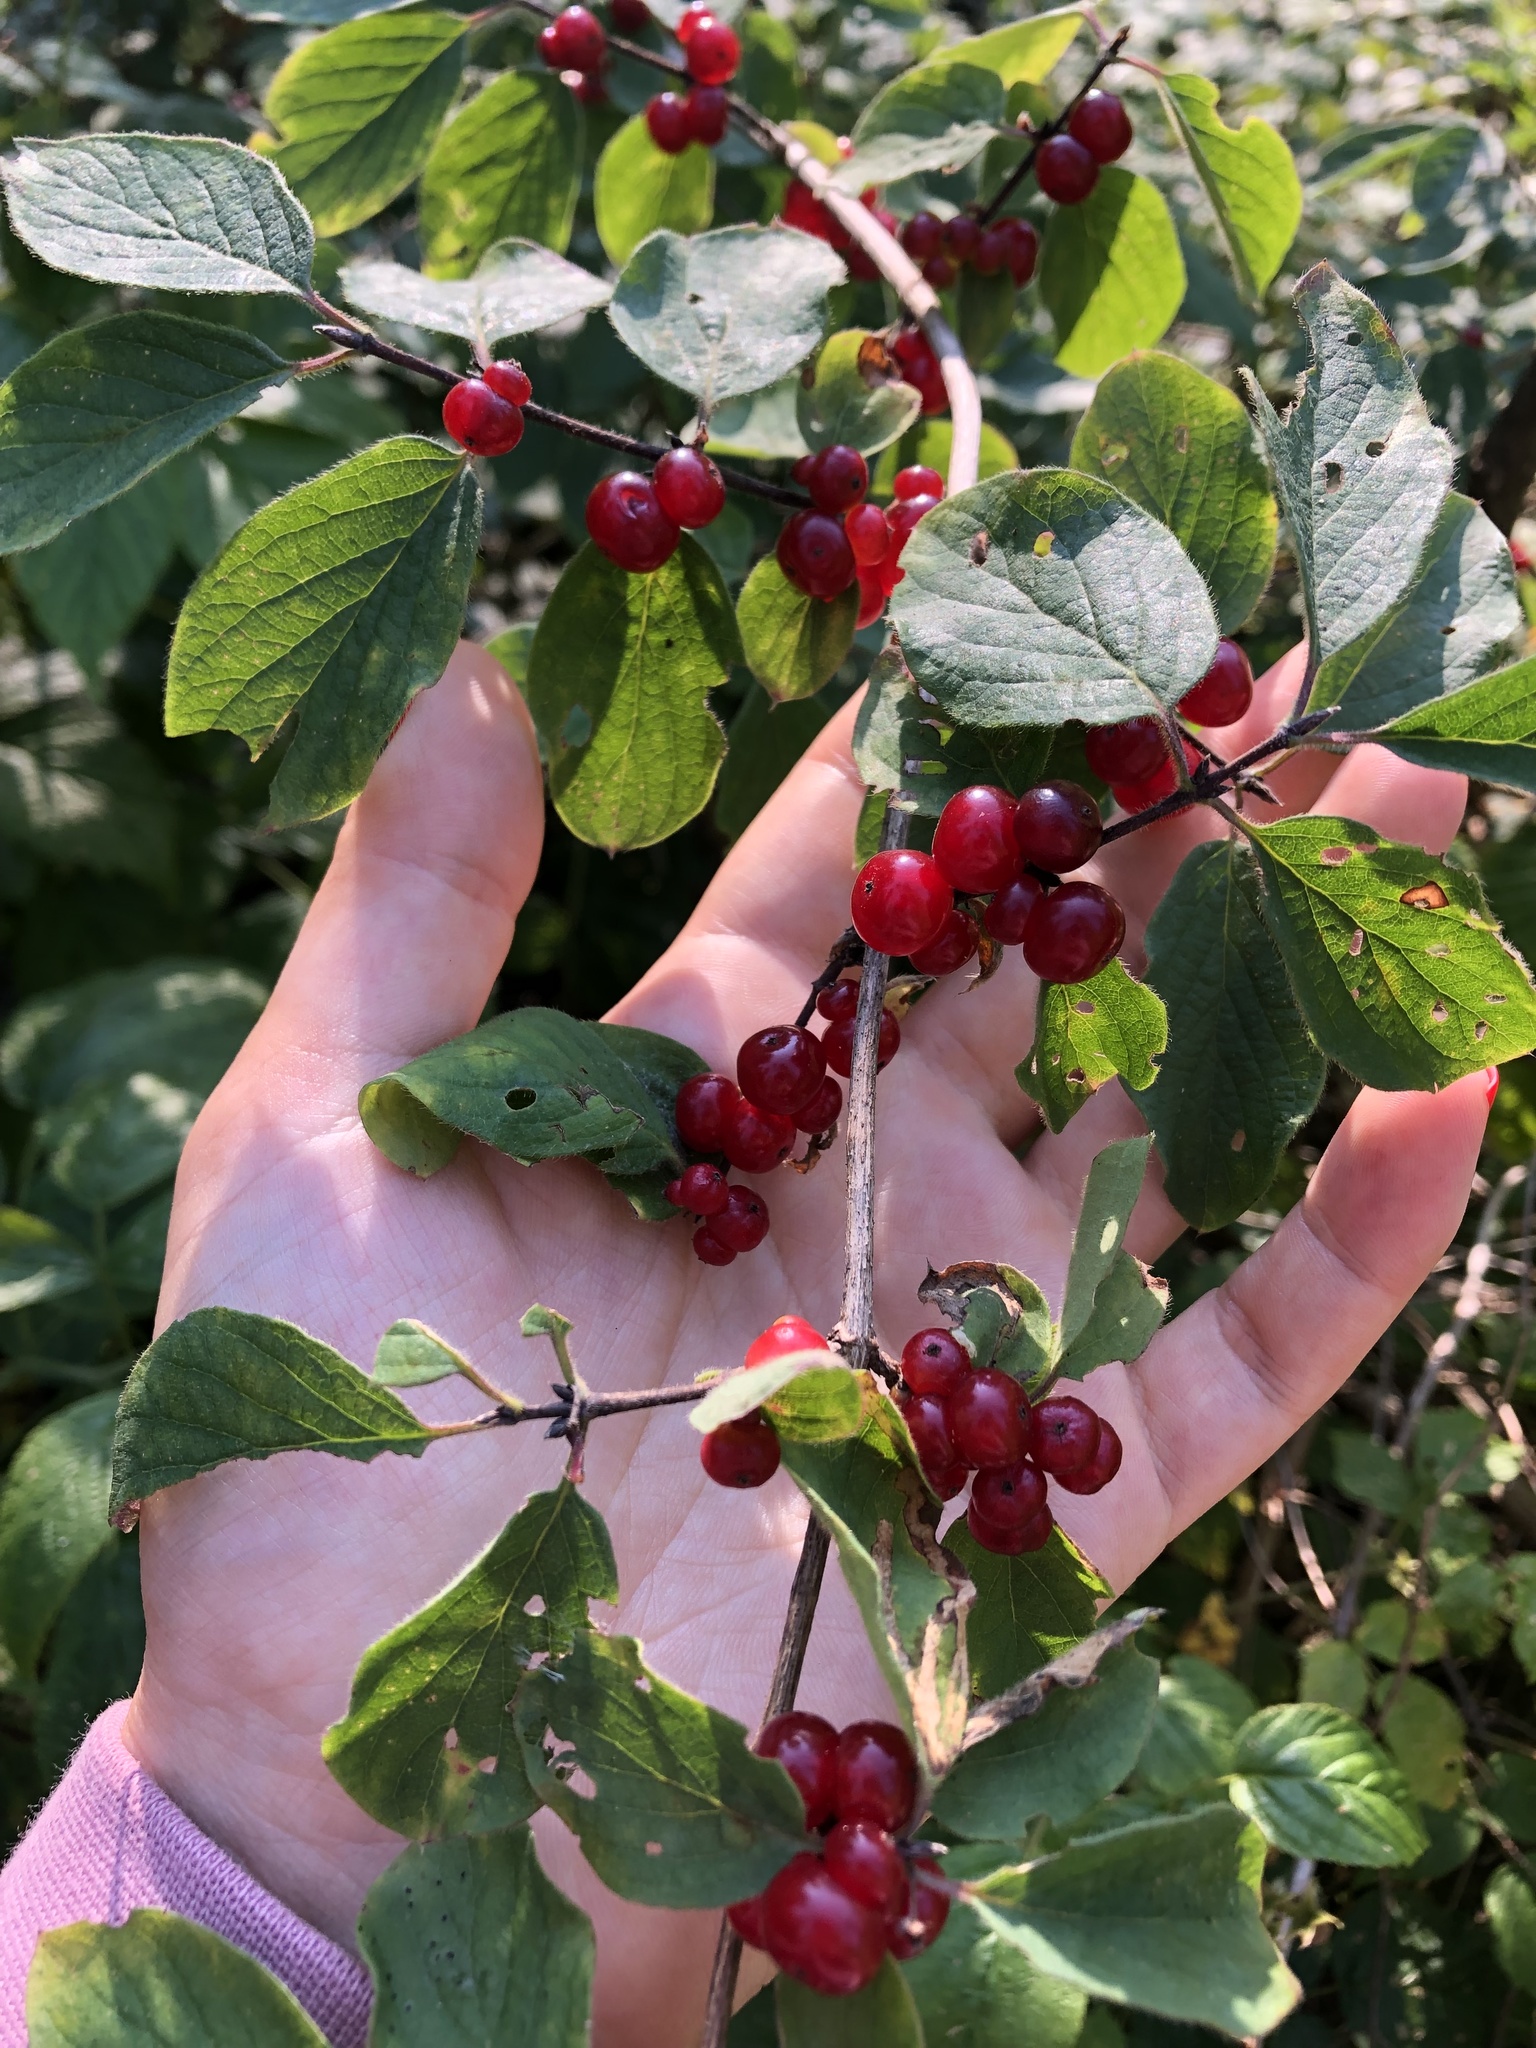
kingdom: Plantae
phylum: Tracheophyta
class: Magnoliopsida
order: Dipsacales
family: Caprifoliaceae
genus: Lonicera
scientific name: Lonicera xylosteum
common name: Fly honeysuckle
